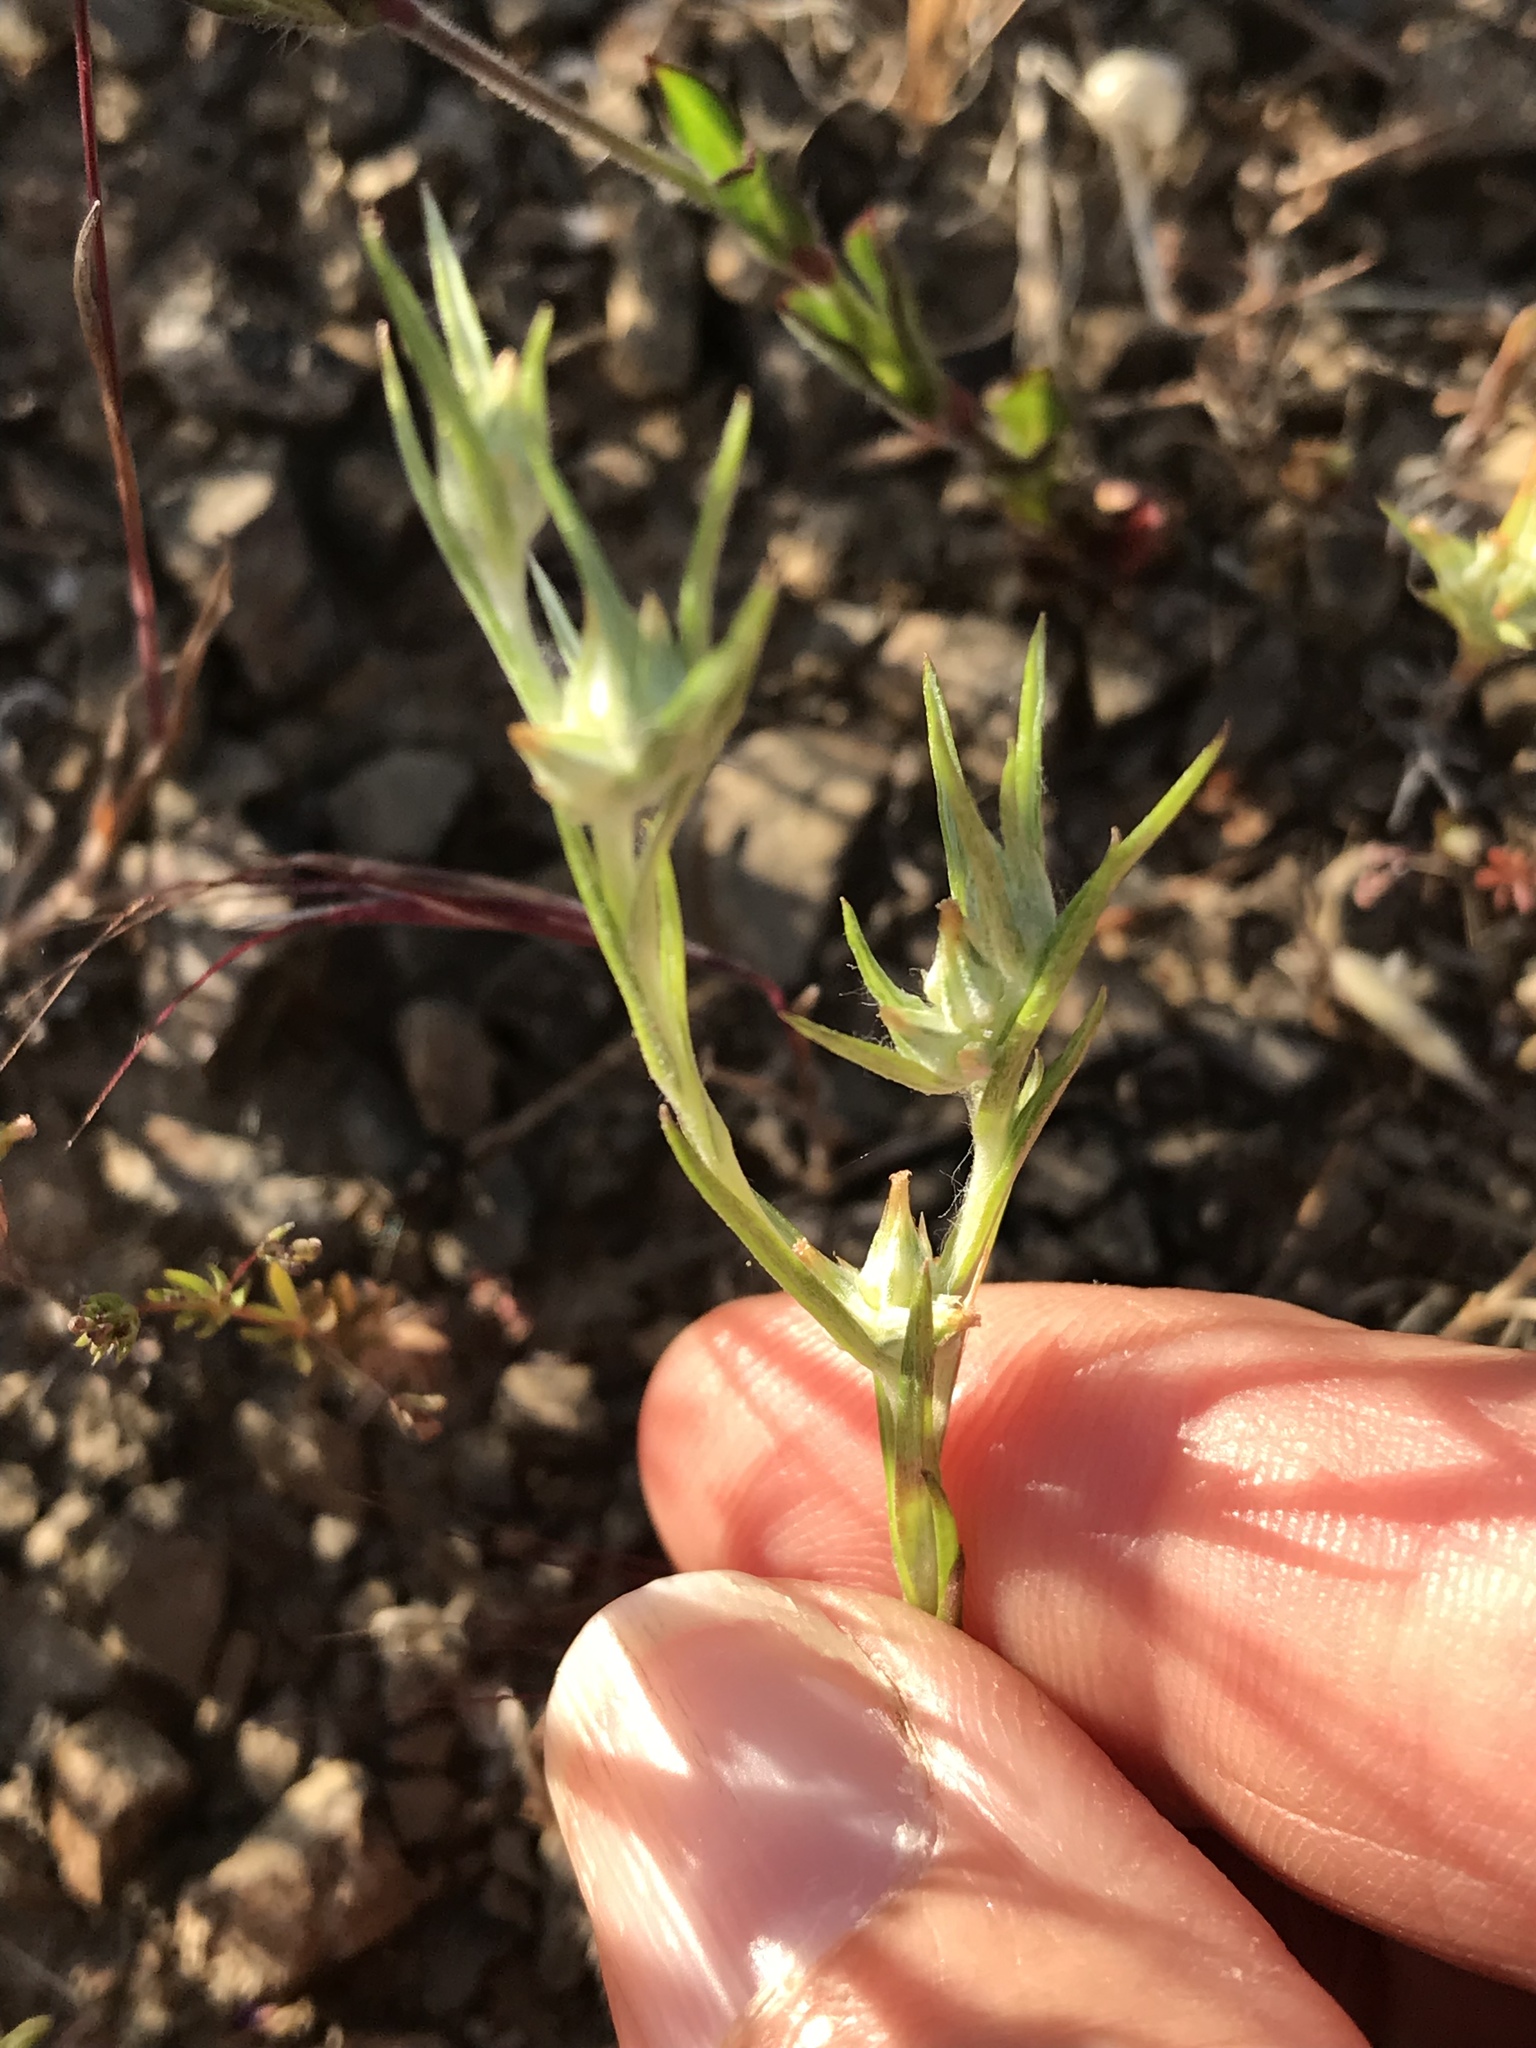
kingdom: Plantae
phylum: Tracheophyta
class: Magnoliopsida
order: Asterales
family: Asteraceae
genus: Logfia
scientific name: Logfia gallica
